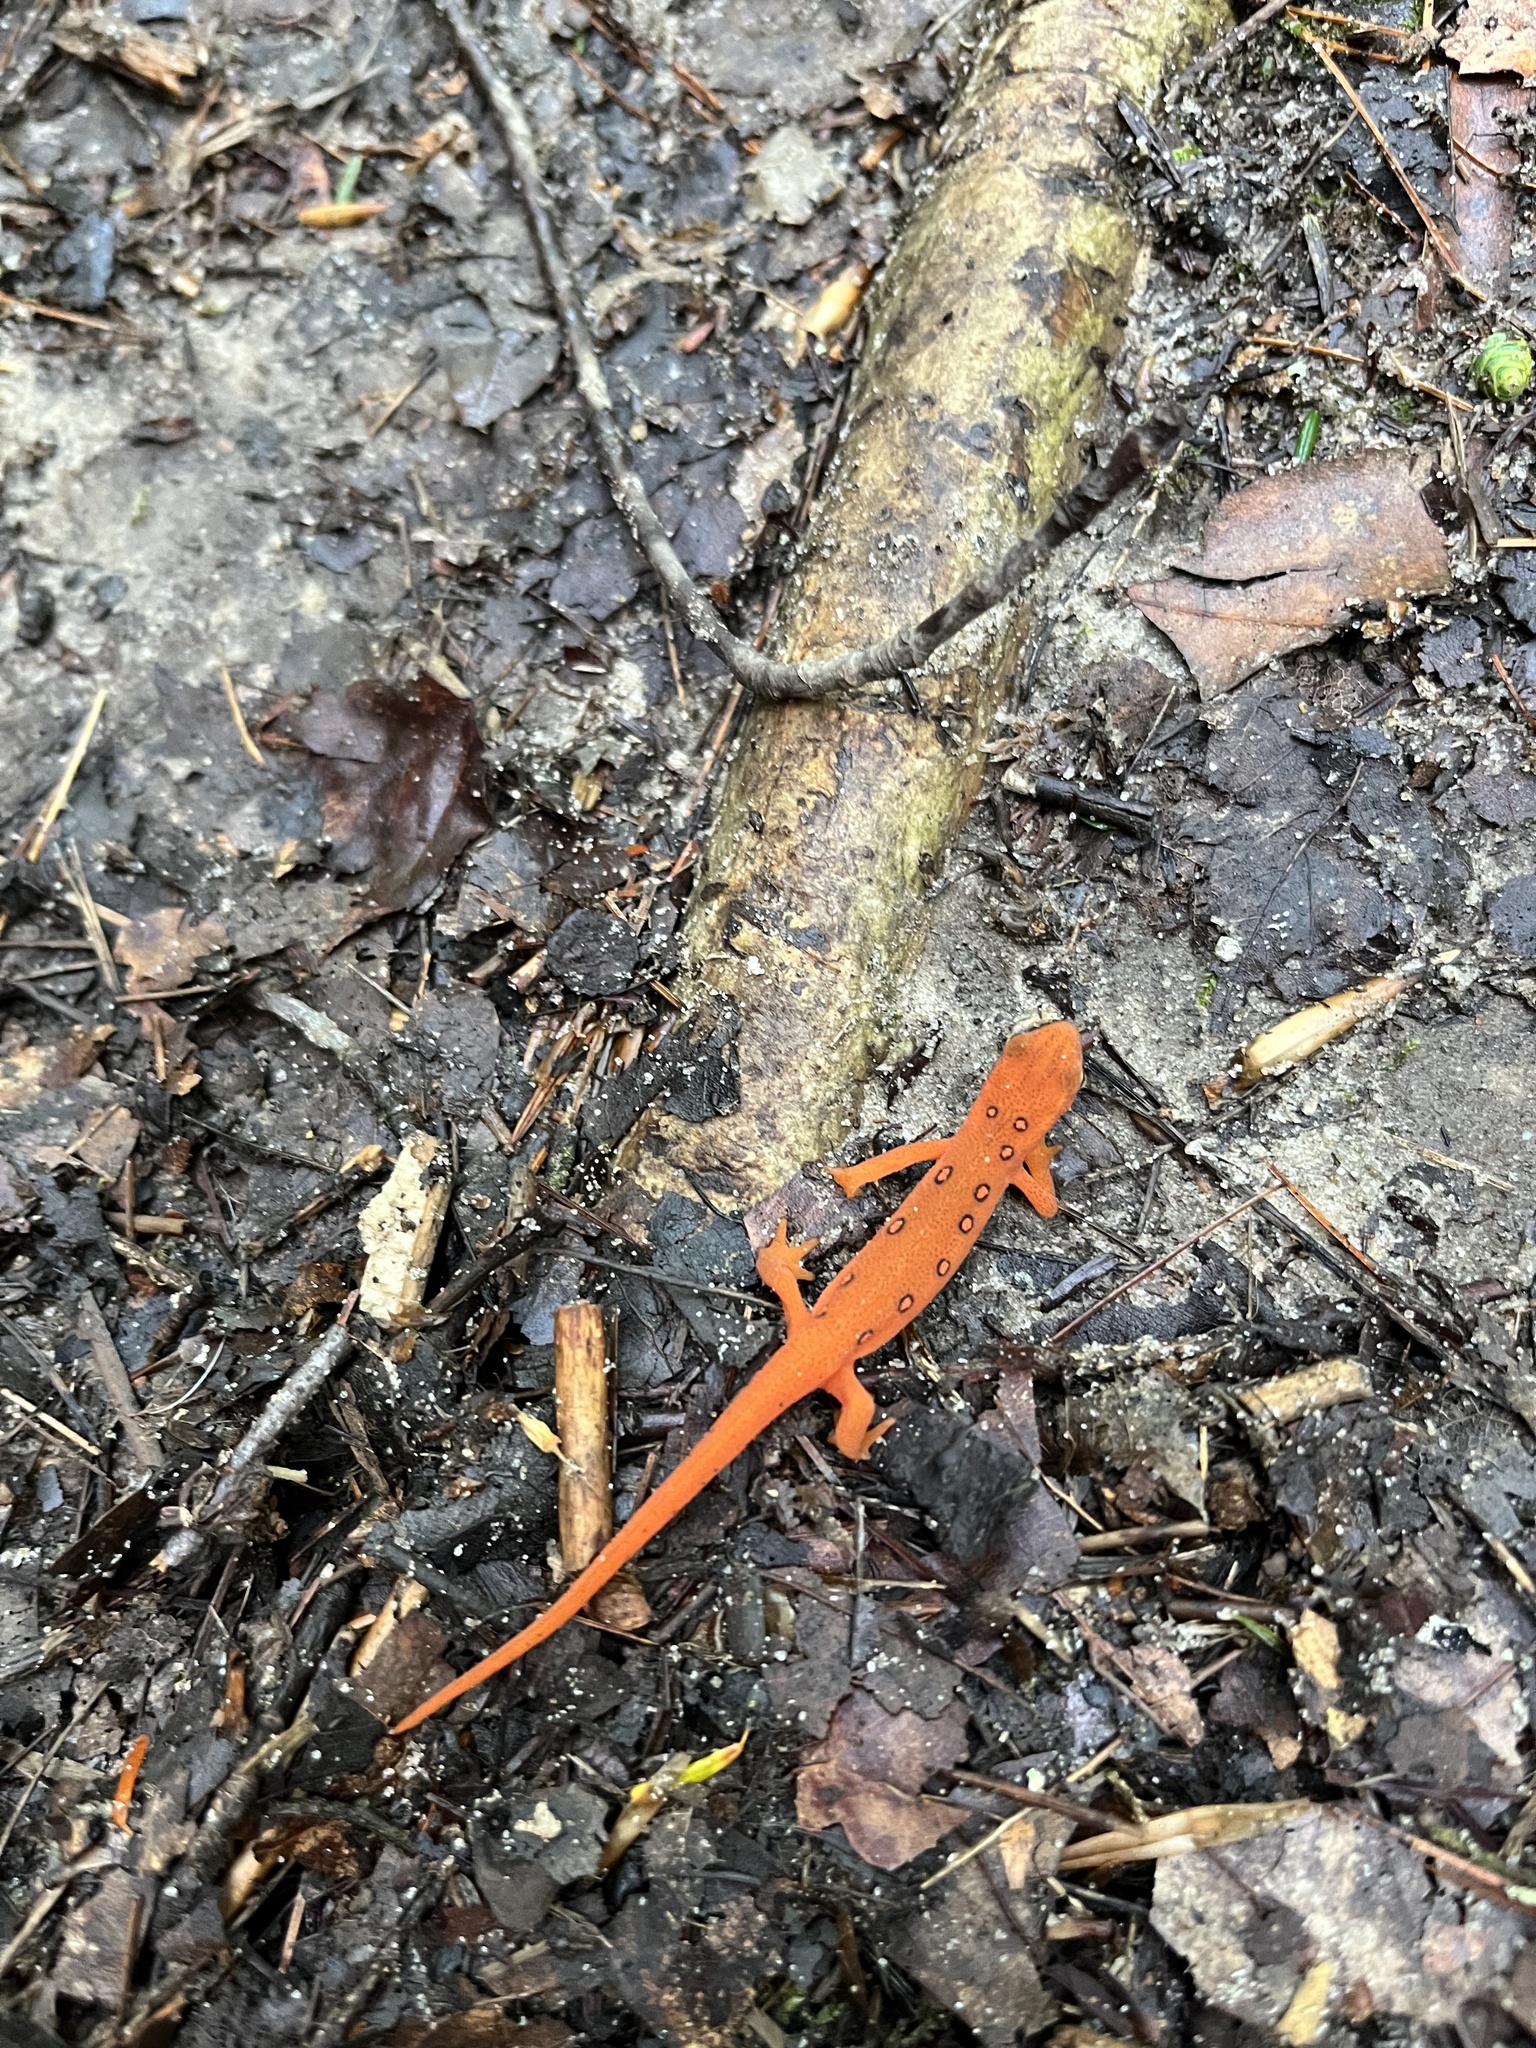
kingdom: Animalia
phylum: Chordata
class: Amphibia
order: Caudata
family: Salamandridae
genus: Notophthalmus
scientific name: Notophthalmus viridescens
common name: Eastern newt
